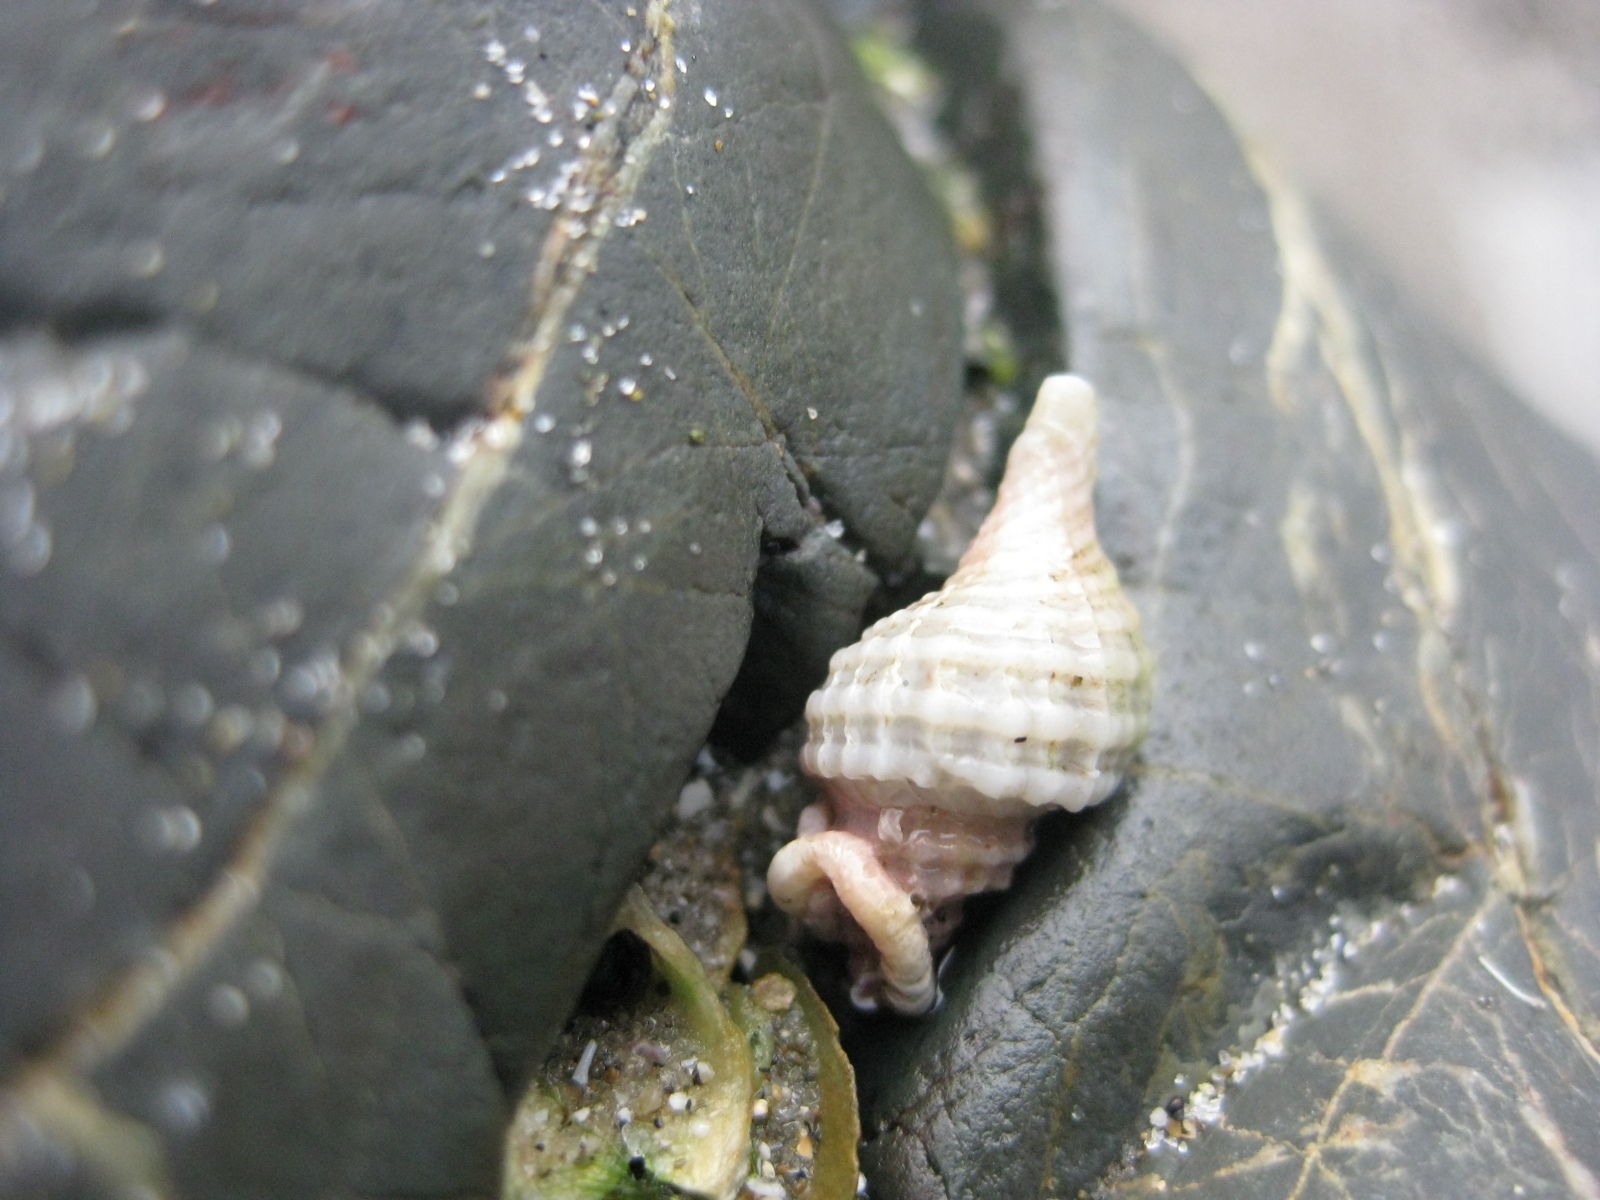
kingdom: Animalia
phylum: Mollusca
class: Gastropoda
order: Neogastropoda
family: Muricidae
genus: Zeatrophon
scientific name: Zeatrophon ambiguus
